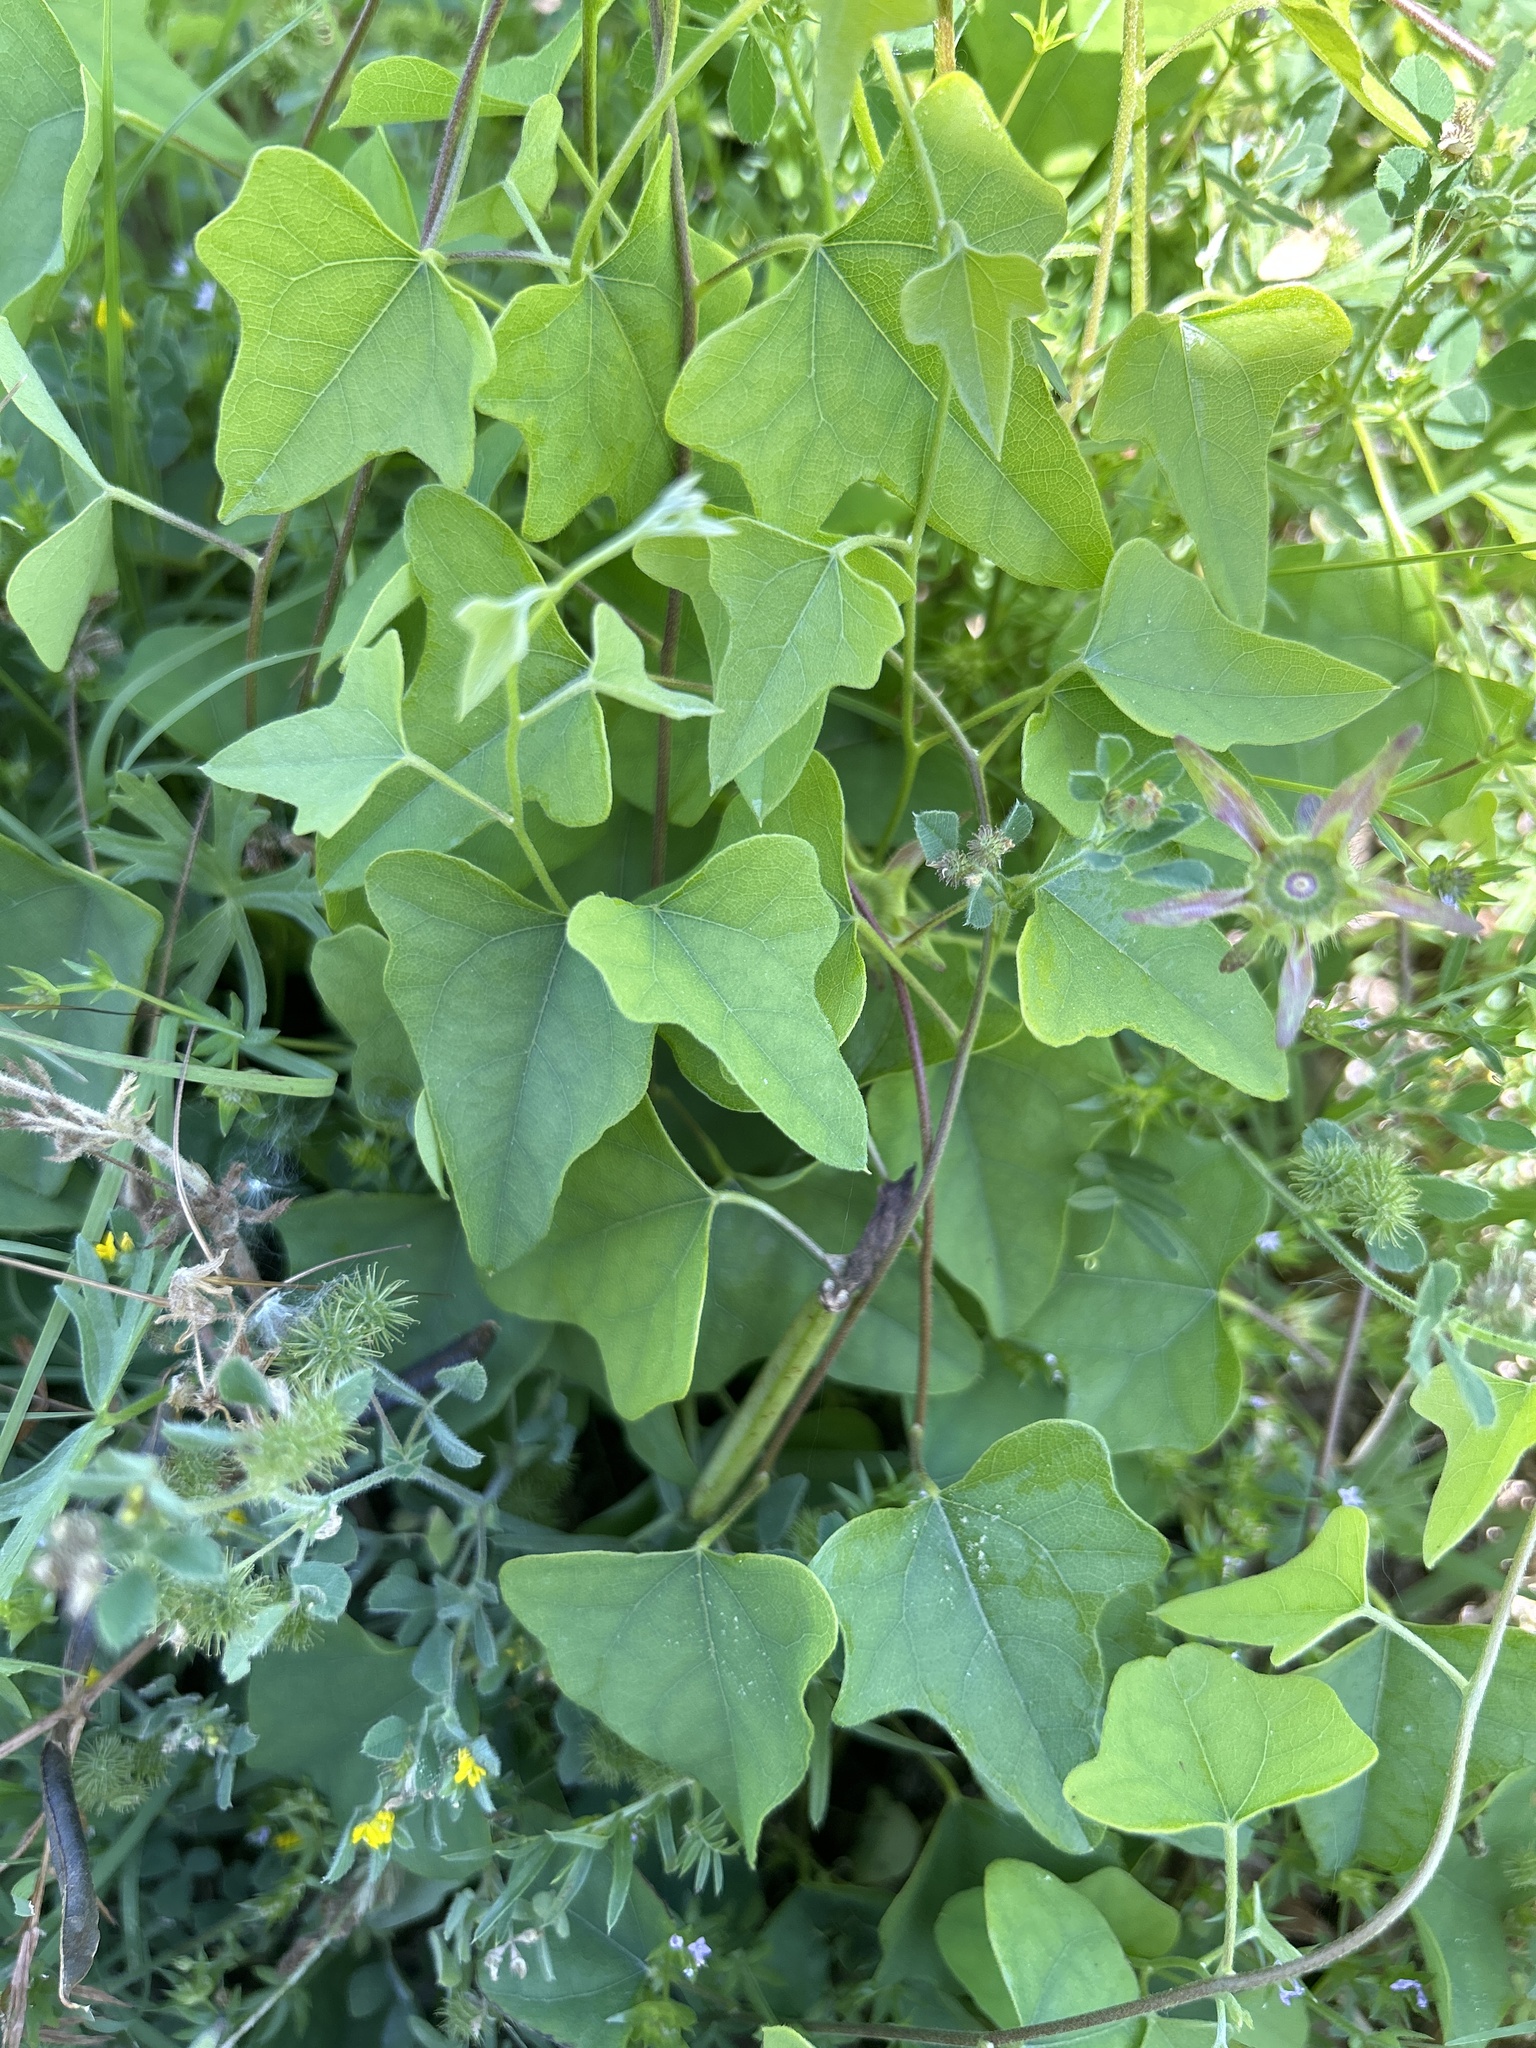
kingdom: Plantae
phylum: Tracheophyta
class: Magnoliopsida
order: Ranunculales
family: Menispermaceae
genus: Cocculus
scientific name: Cocculus carolinus
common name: Carolina moonseed
